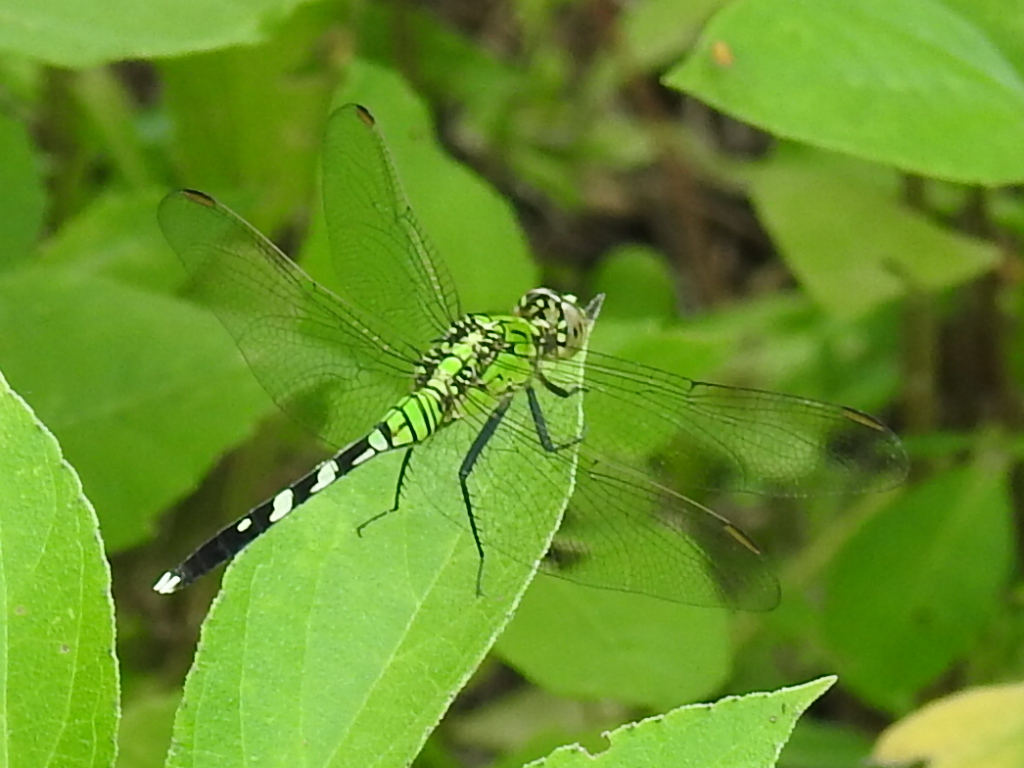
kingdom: Animalia
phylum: Arthropoda
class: Insecta
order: Odonata
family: Libellulidae
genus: Erythemis
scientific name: Erythemis simplicicollis
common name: Eastern pondhawk
